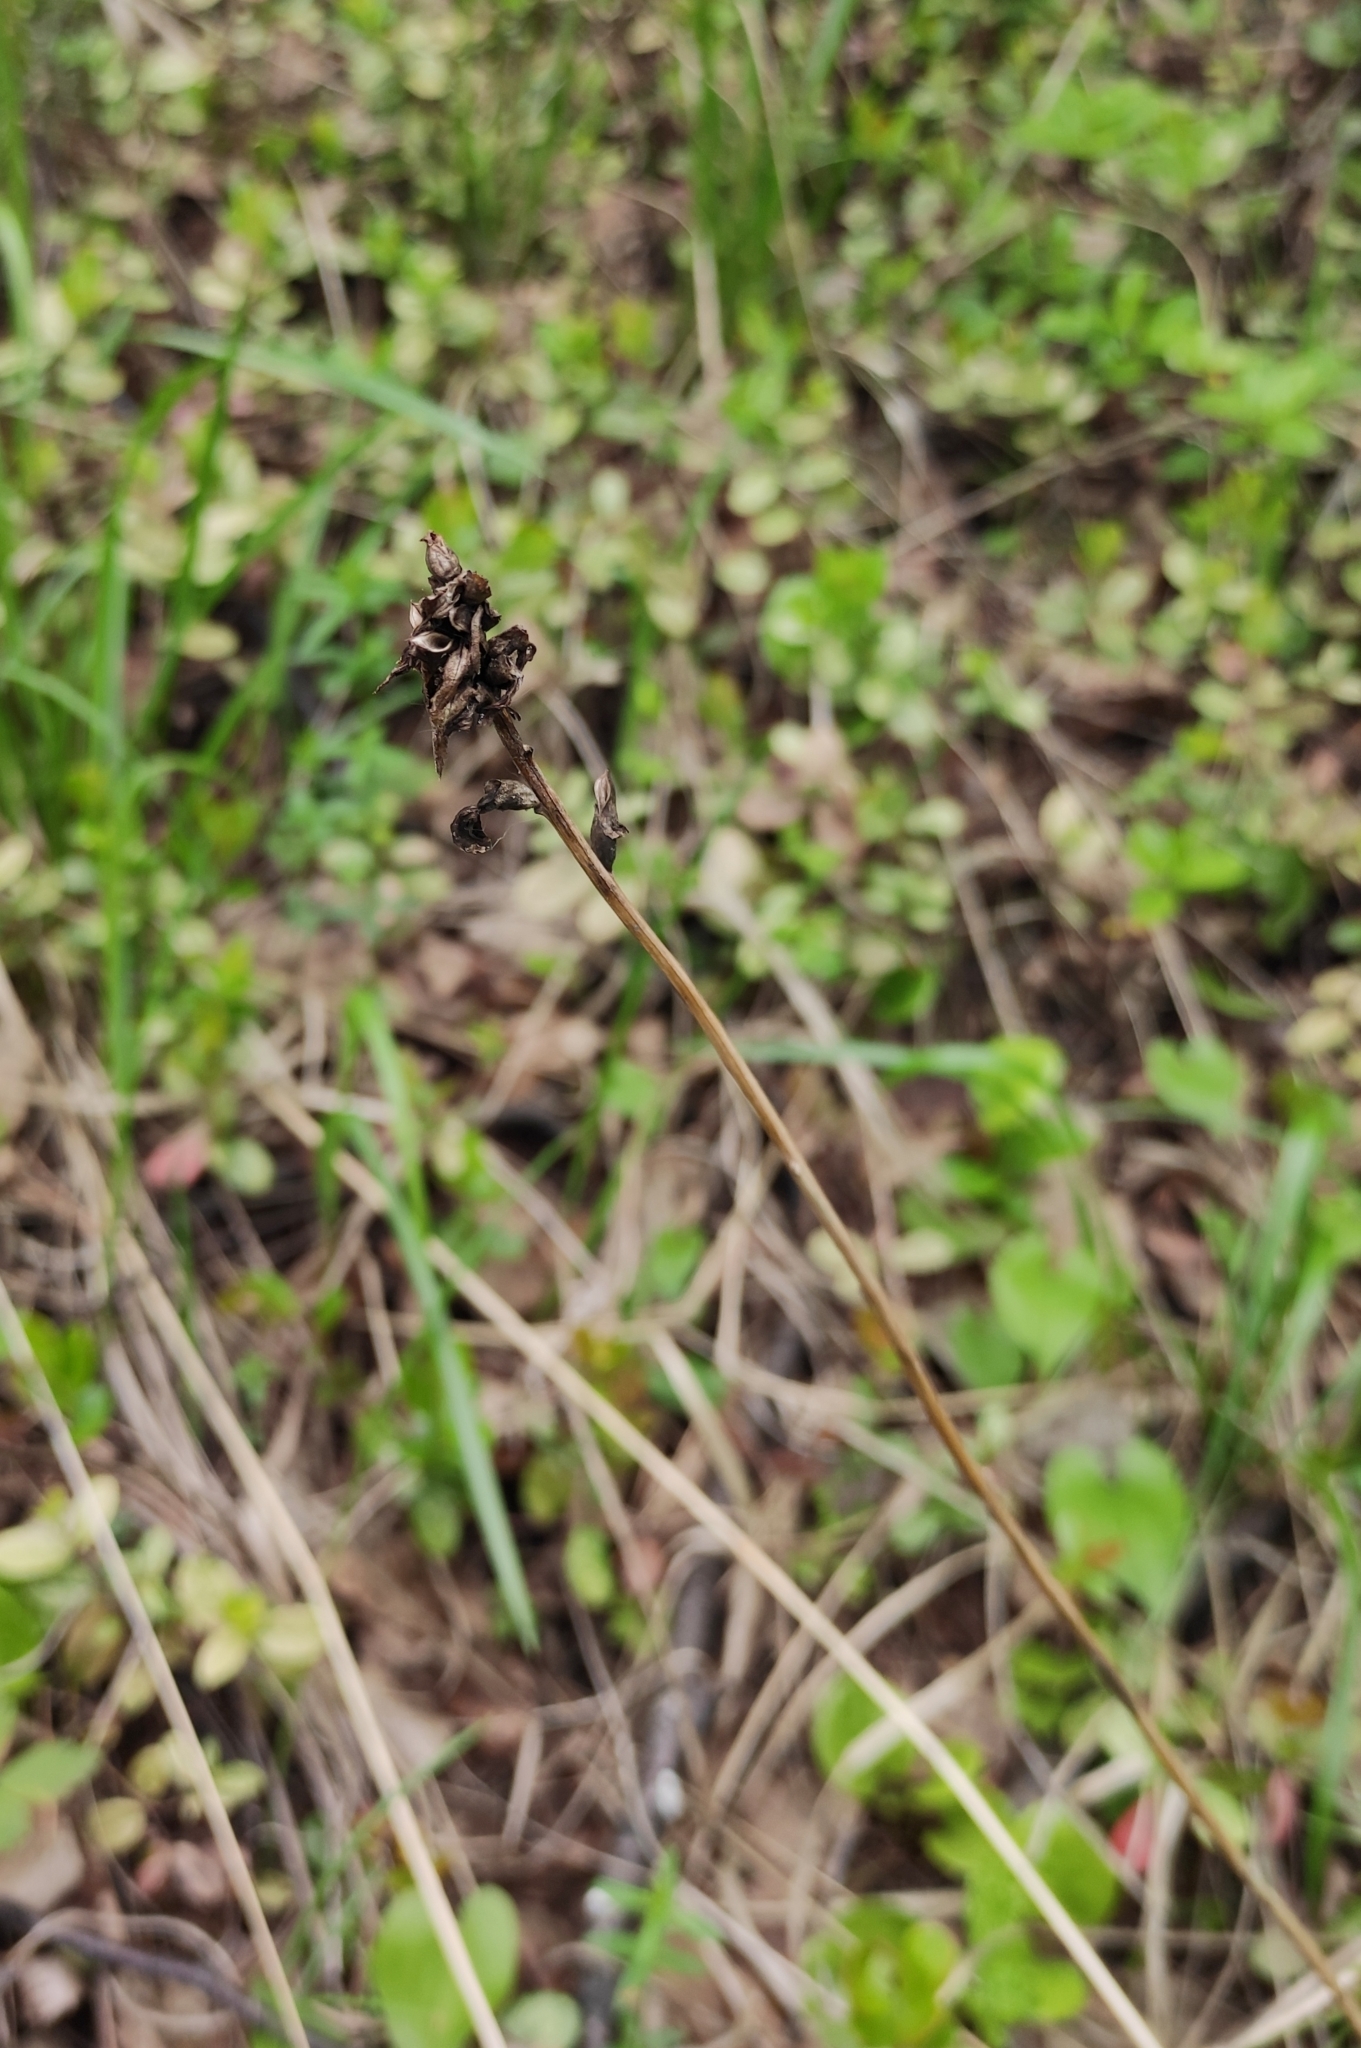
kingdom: Plantae
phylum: Tracheophyta
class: Magnoliopsida
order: Lamiales
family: Orobanchaceae
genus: Pedicularis
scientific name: Pedicularis resupinata
